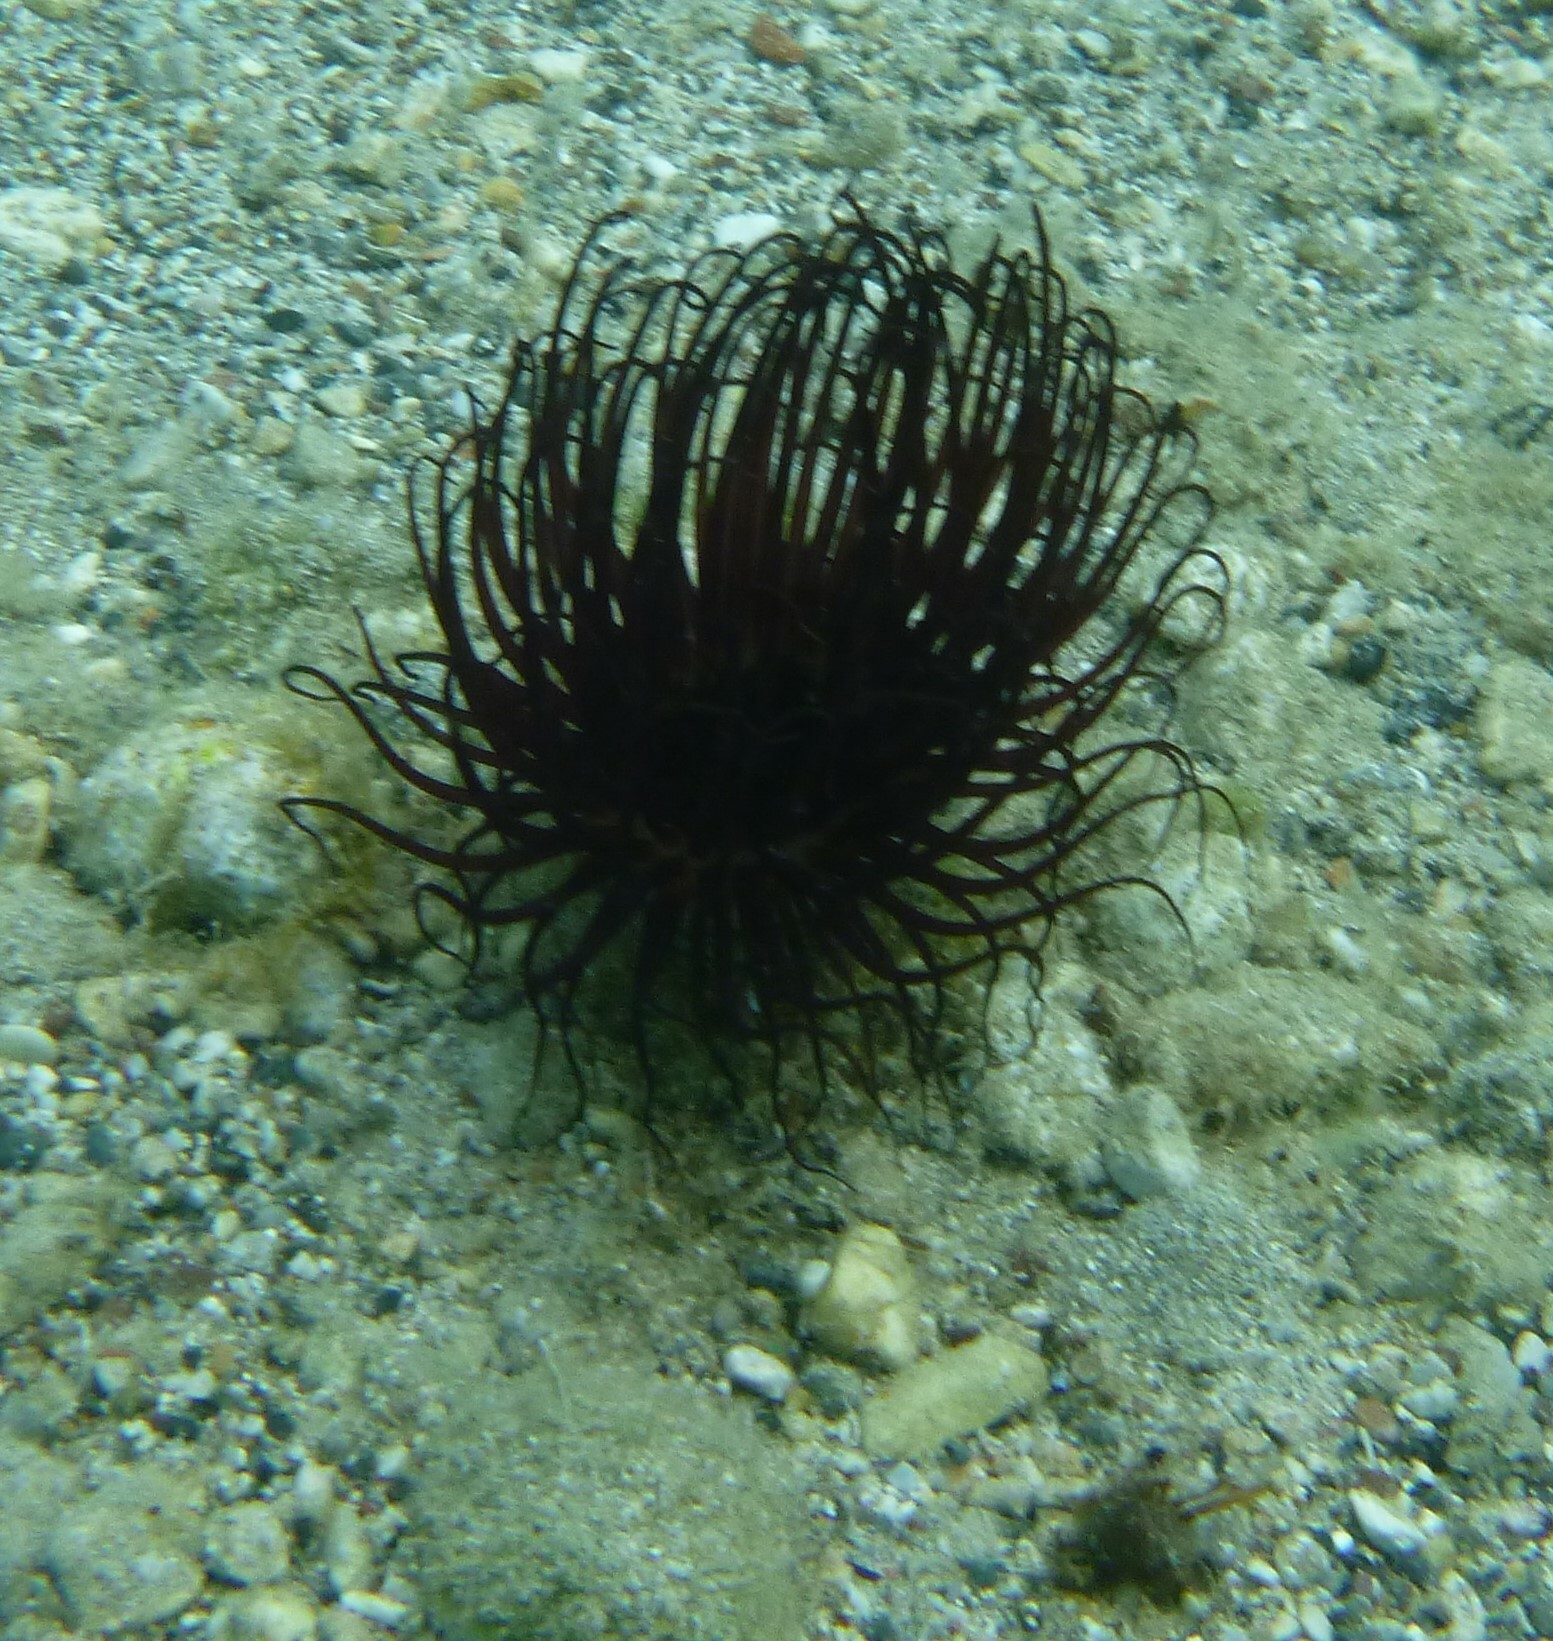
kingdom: Animalia
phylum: Cnidaria
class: Anthozoa
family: Cerianthidae
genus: Pachycerianthus
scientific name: Pachycerianthus solitarius
